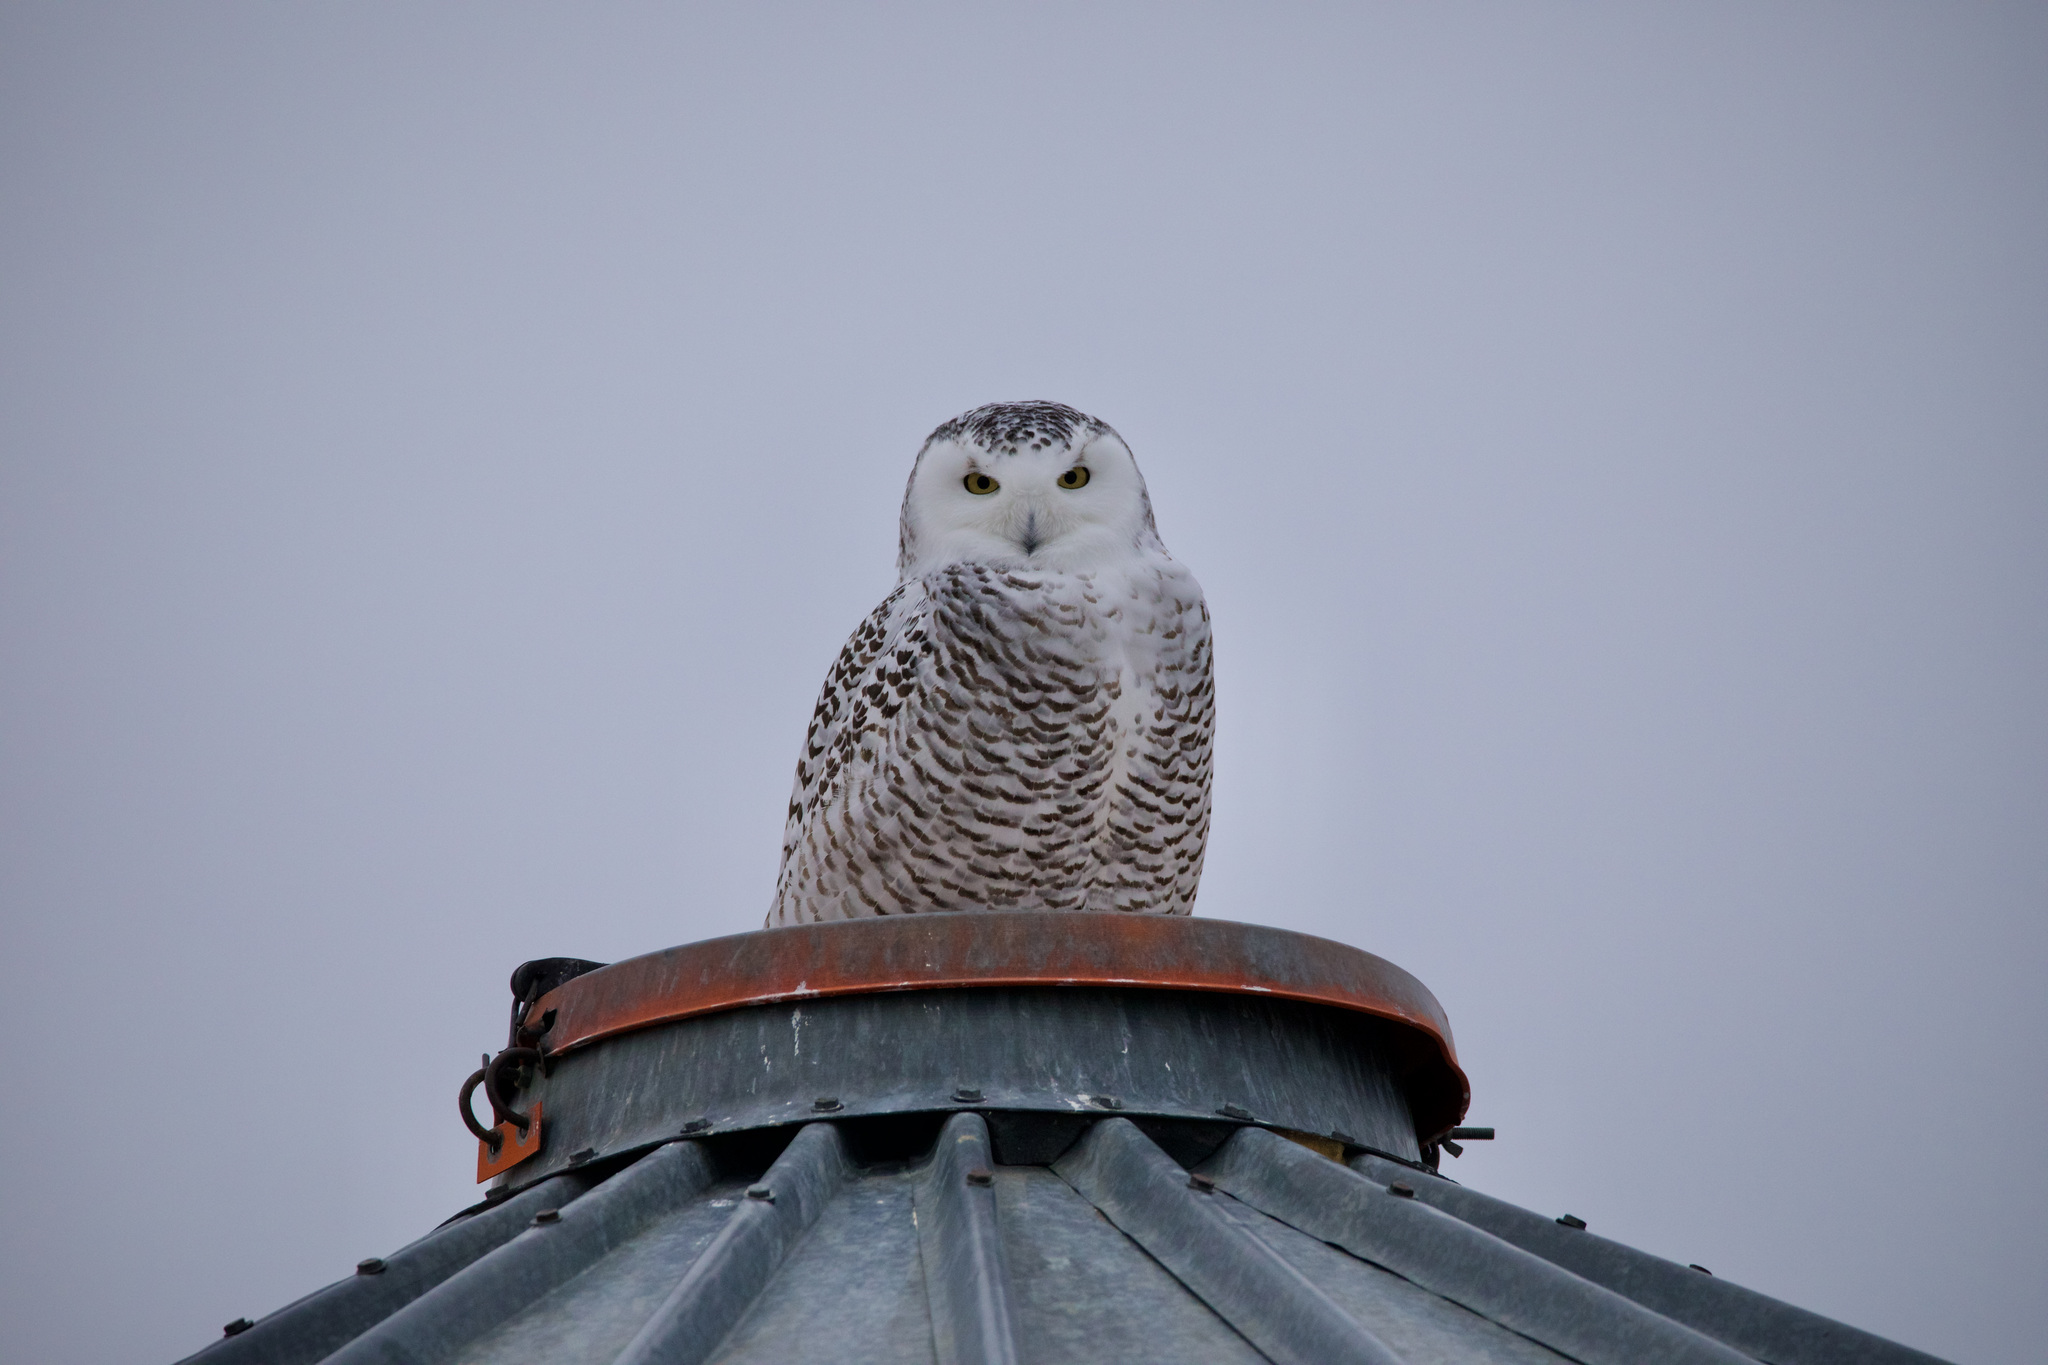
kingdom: Animalia
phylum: Chordata
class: Aves
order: Strigiformes
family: Strigidae
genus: Bubo
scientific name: Bubo scandiacus
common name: Snowy owl
